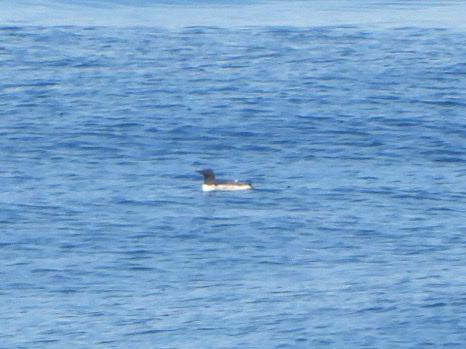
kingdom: Animalia
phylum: Chordata
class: Aves
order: Charadriiformes
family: Alcidae
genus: Uria
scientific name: Uria aalge
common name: Common murre
